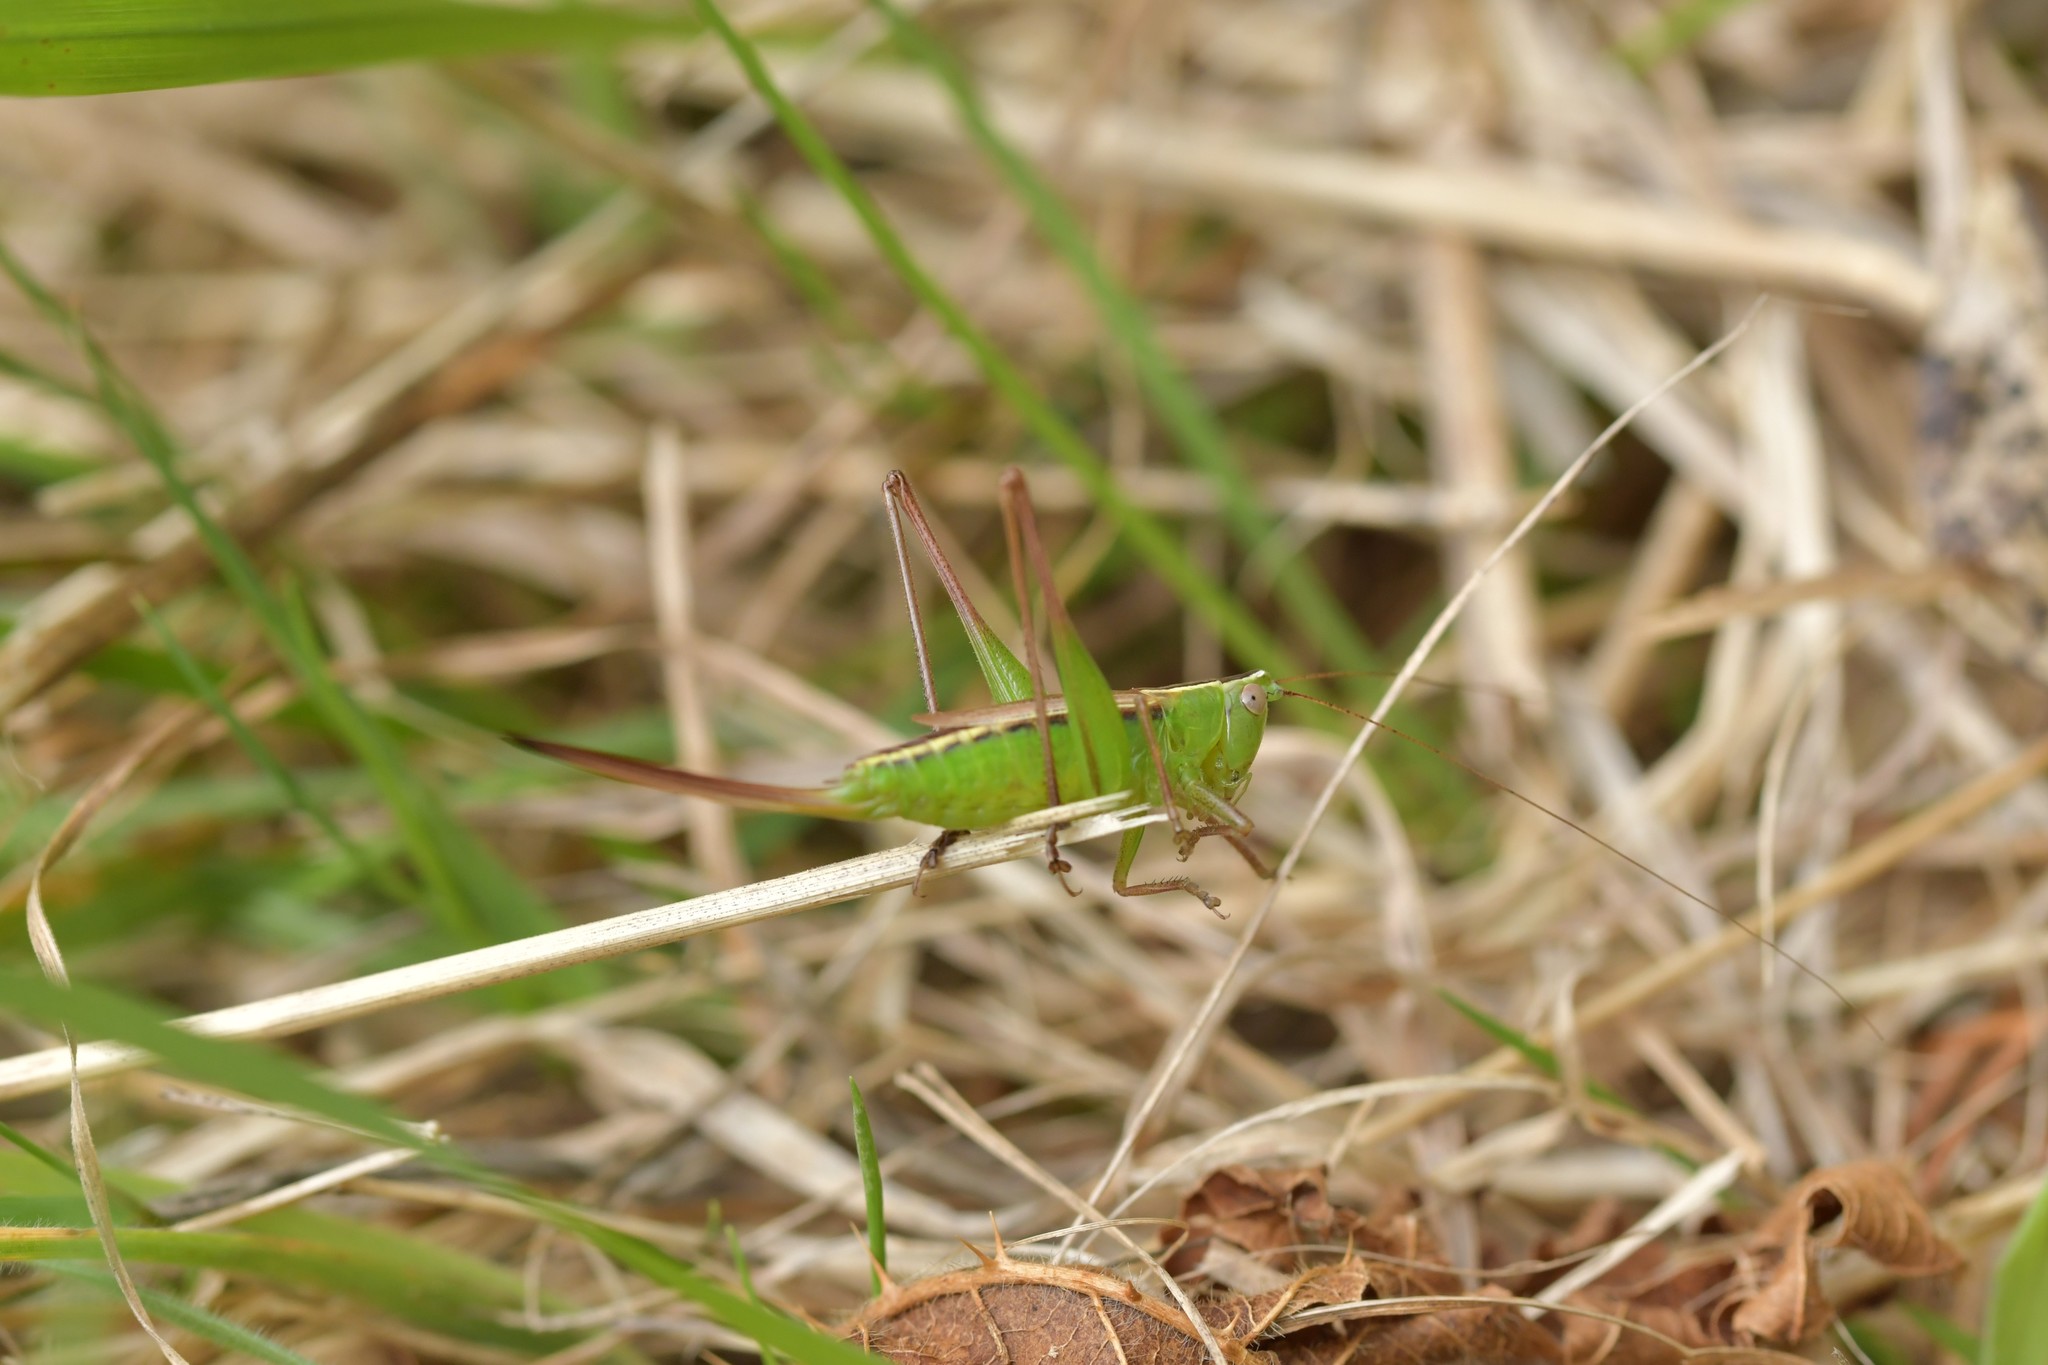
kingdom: Animalia
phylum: Arthropoda
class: Insecta
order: Orthoptera
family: Tettigoniidae
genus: Conocephalus
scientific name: Conocephalus albescens
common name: Whitish meadow katydid
